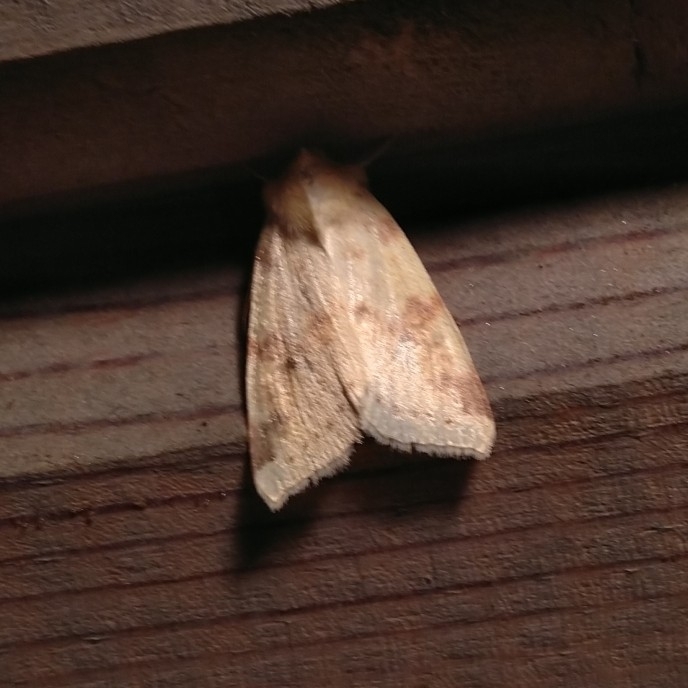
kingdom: Animalia
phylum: Arthropoda
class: Insecta
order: Lepidoptera
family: Noctuidae
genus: Xanthia
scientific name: Xanthia icteritia
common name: The sallow
